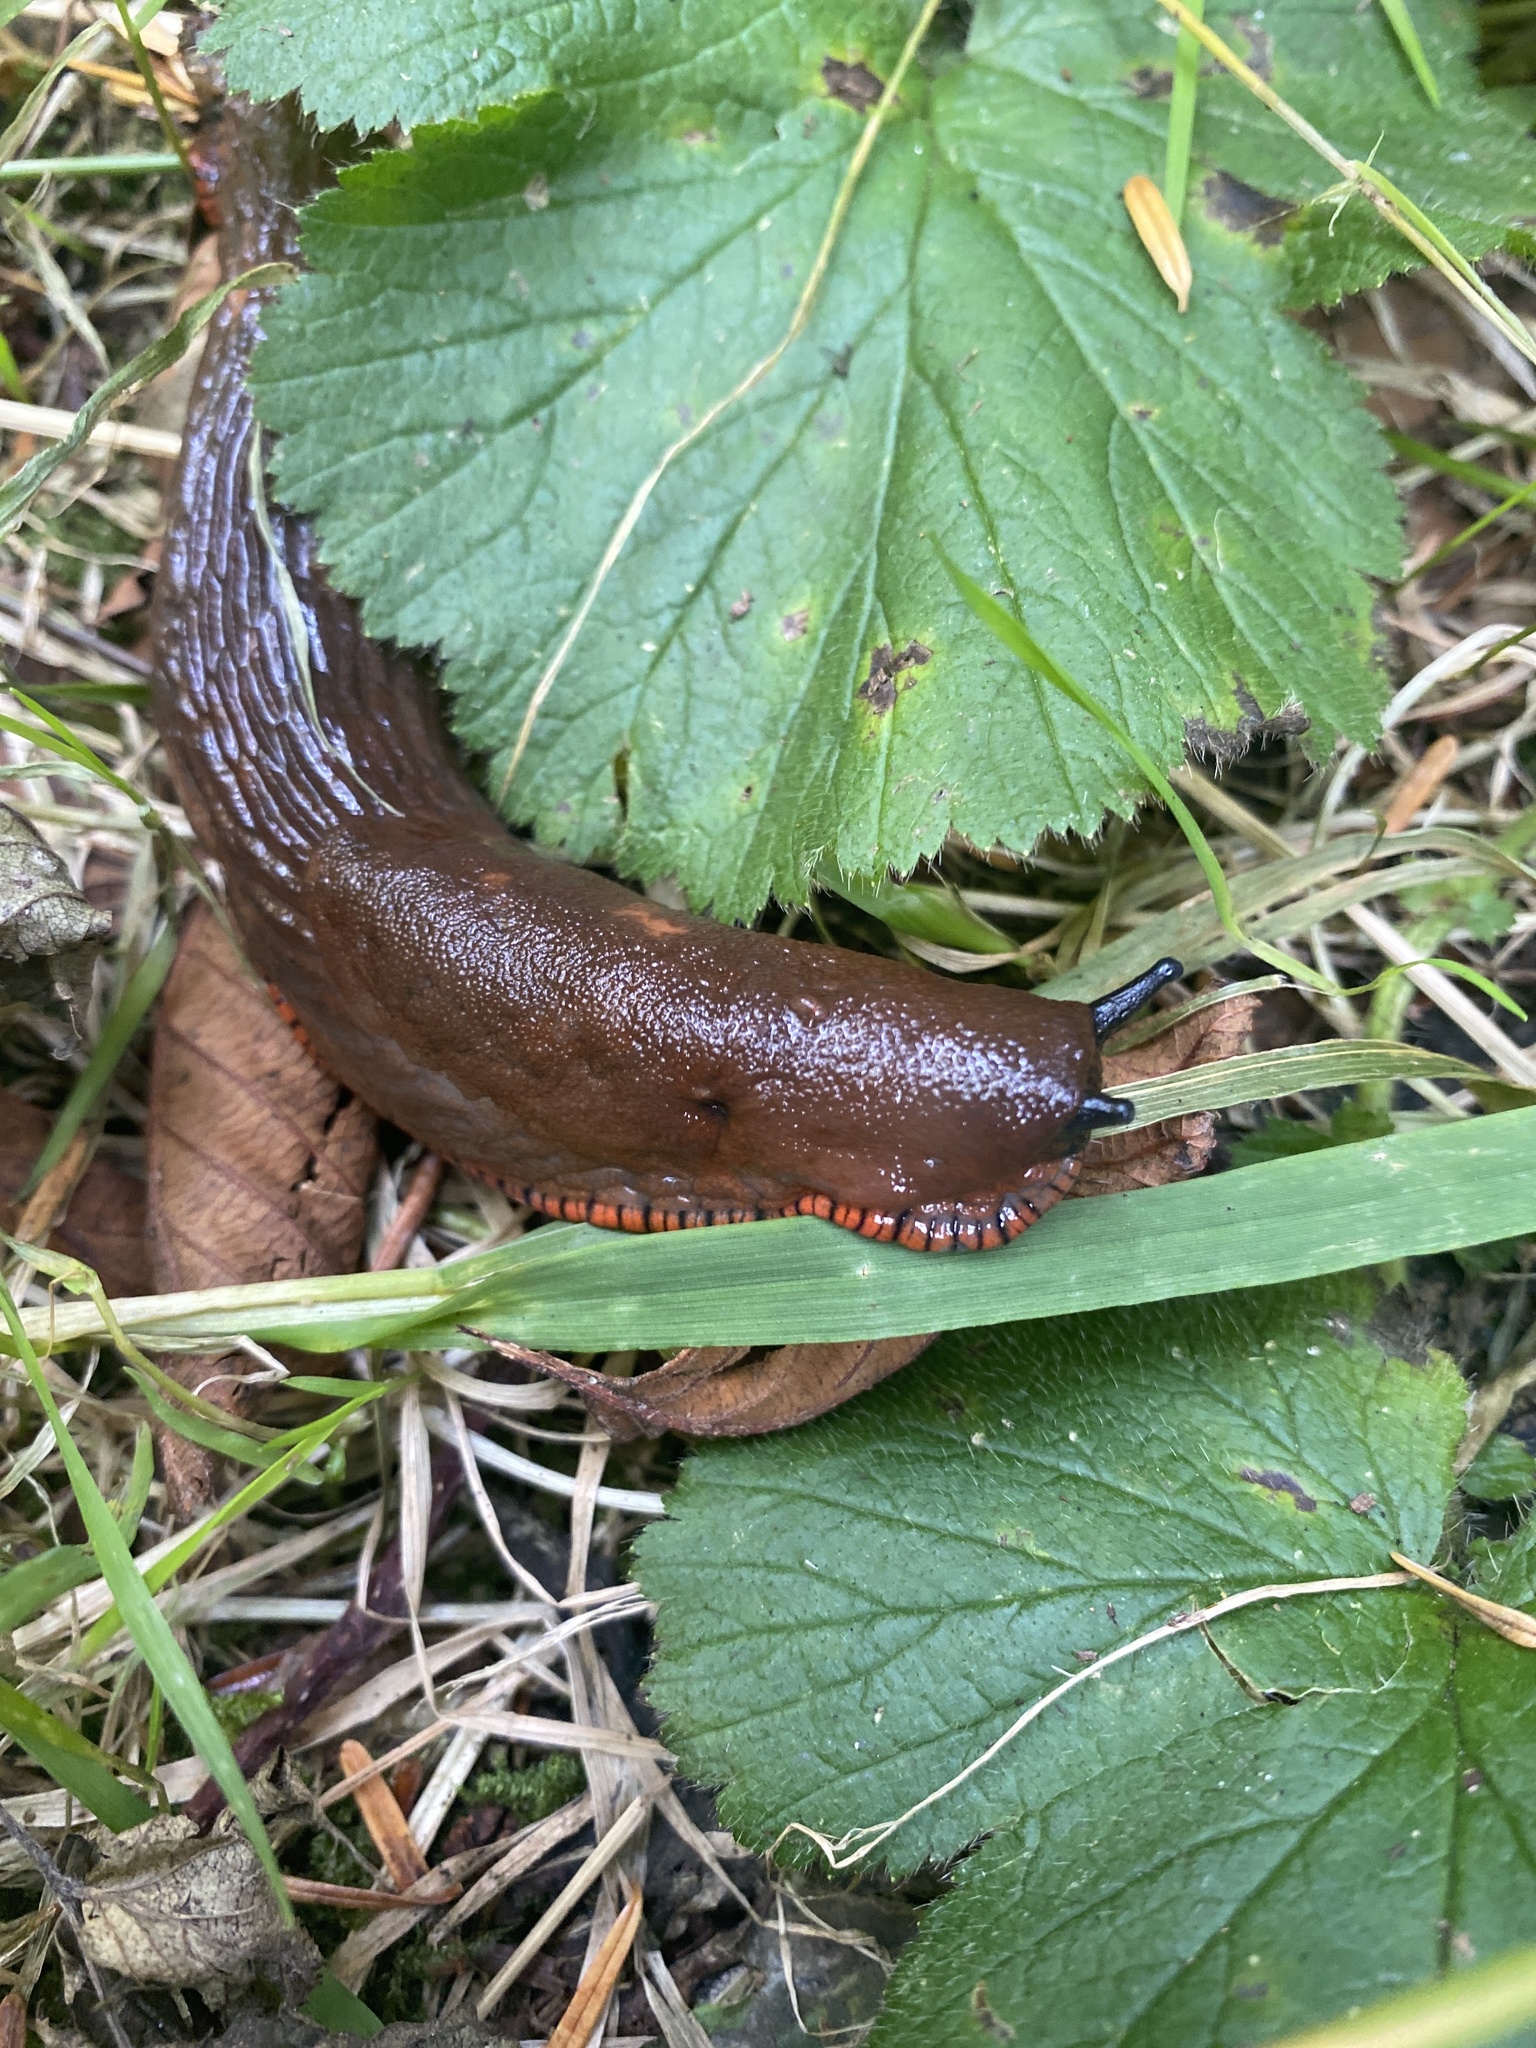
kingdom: Animalia
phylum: Mollusca
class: Gastropoda
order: Stylommatophora
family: Arionidae
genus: Arion
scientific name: Arion rufus
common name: Chocolate arion
